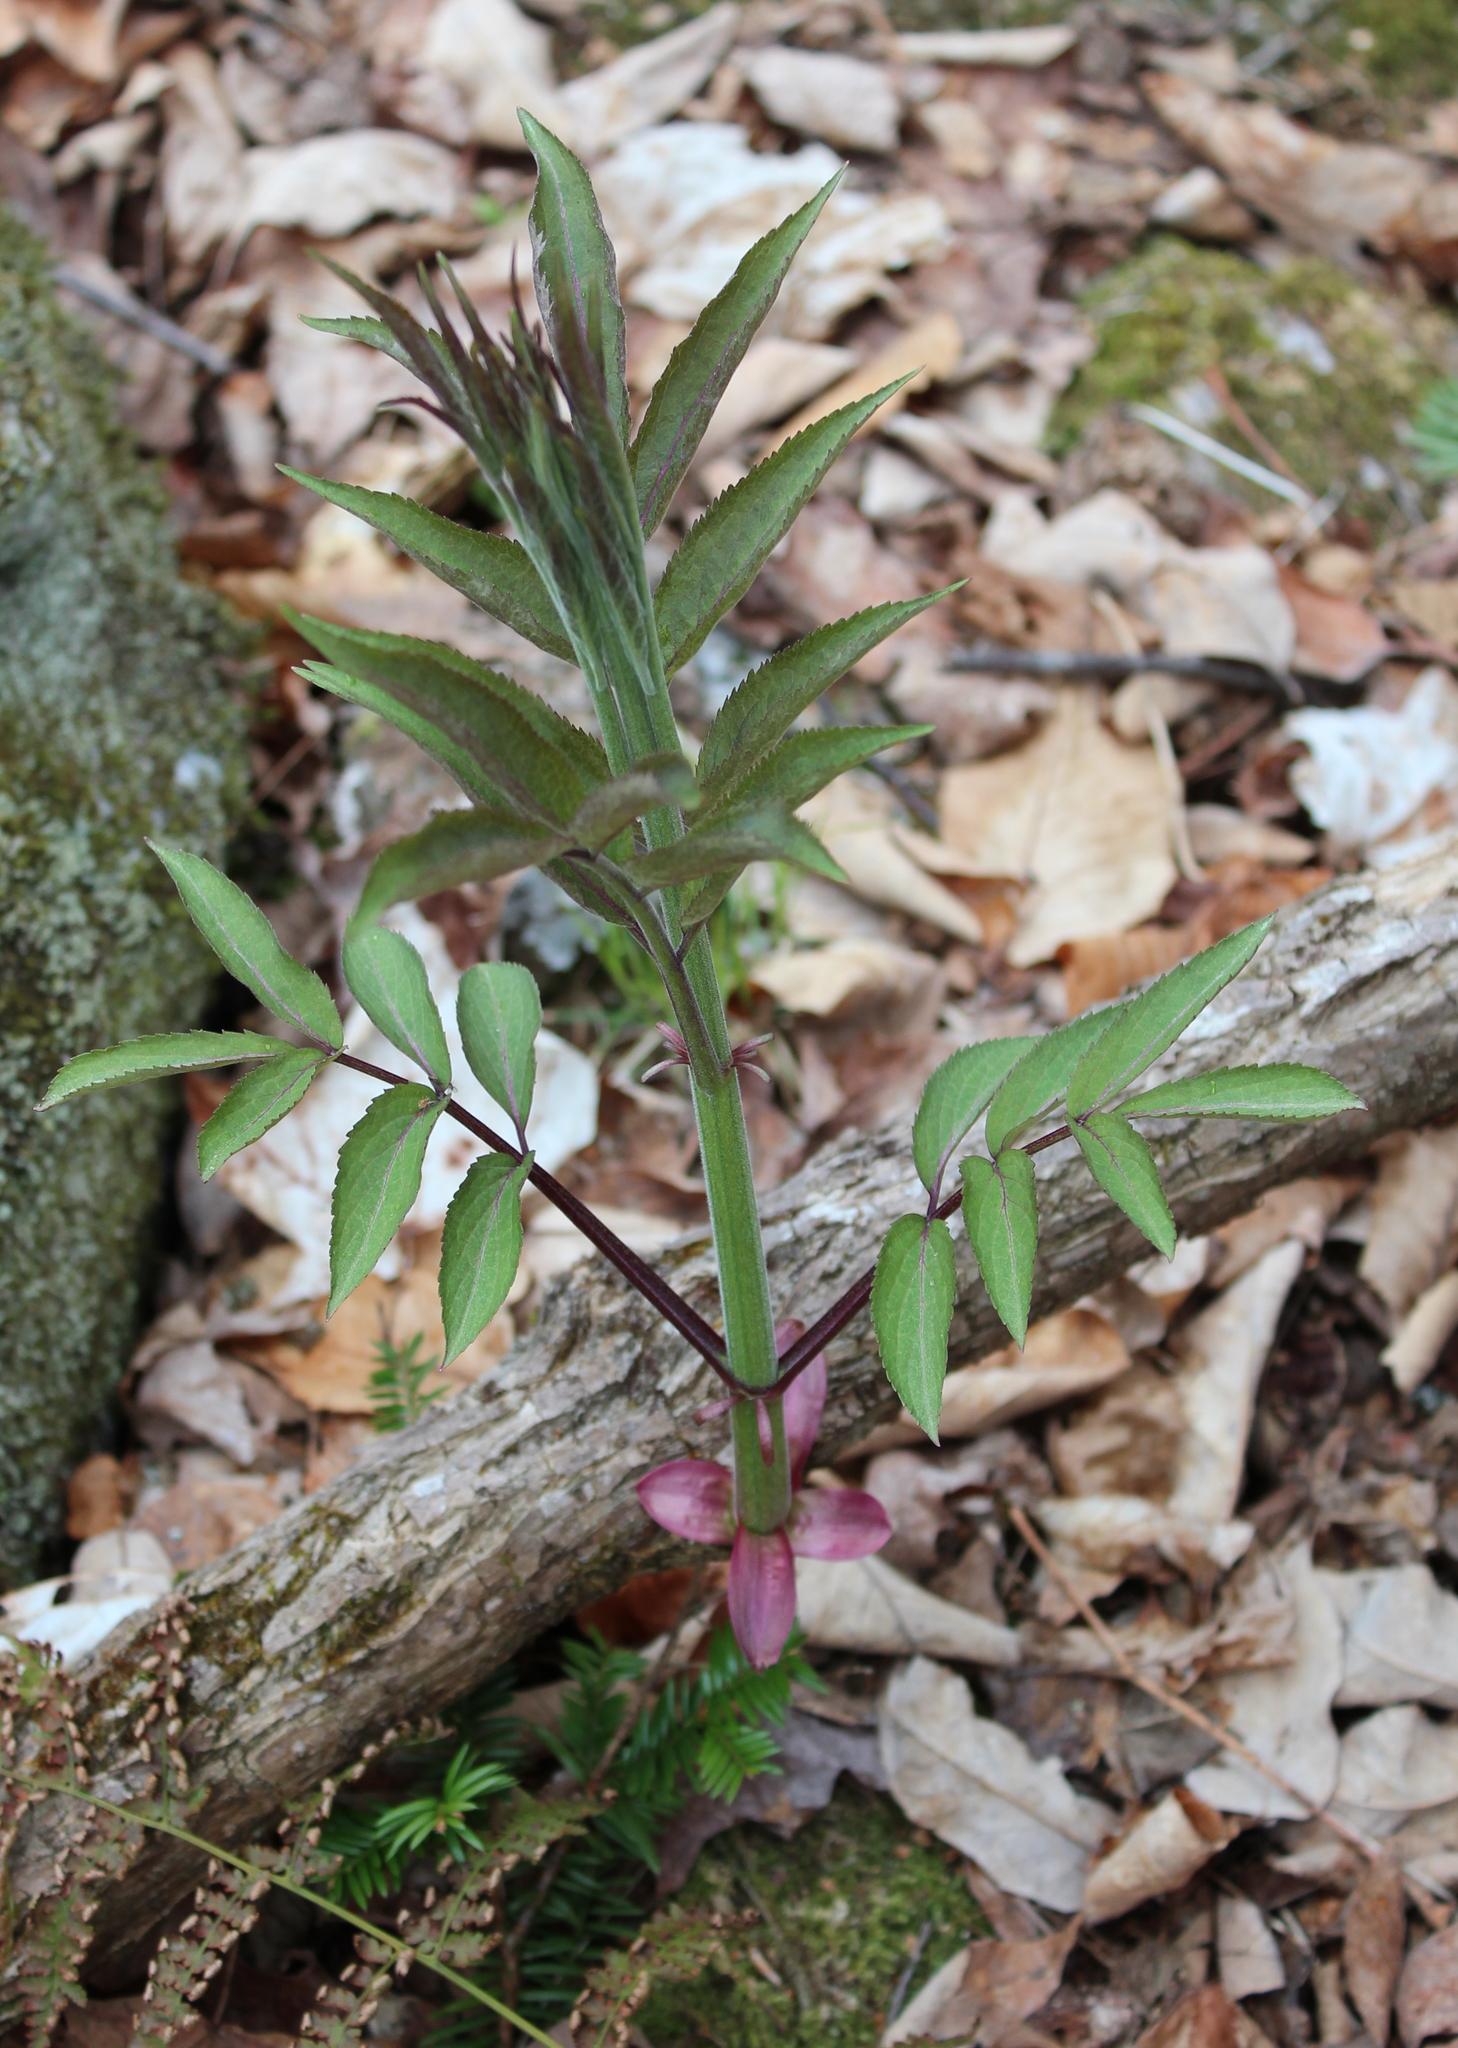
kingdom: Plantae
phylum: Tracheophyta
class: Magnoliopsida
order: Dipsacales
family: Viburnaceae
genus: Sambucus
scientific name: Sambucus racemosa
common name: Red-berried elder
